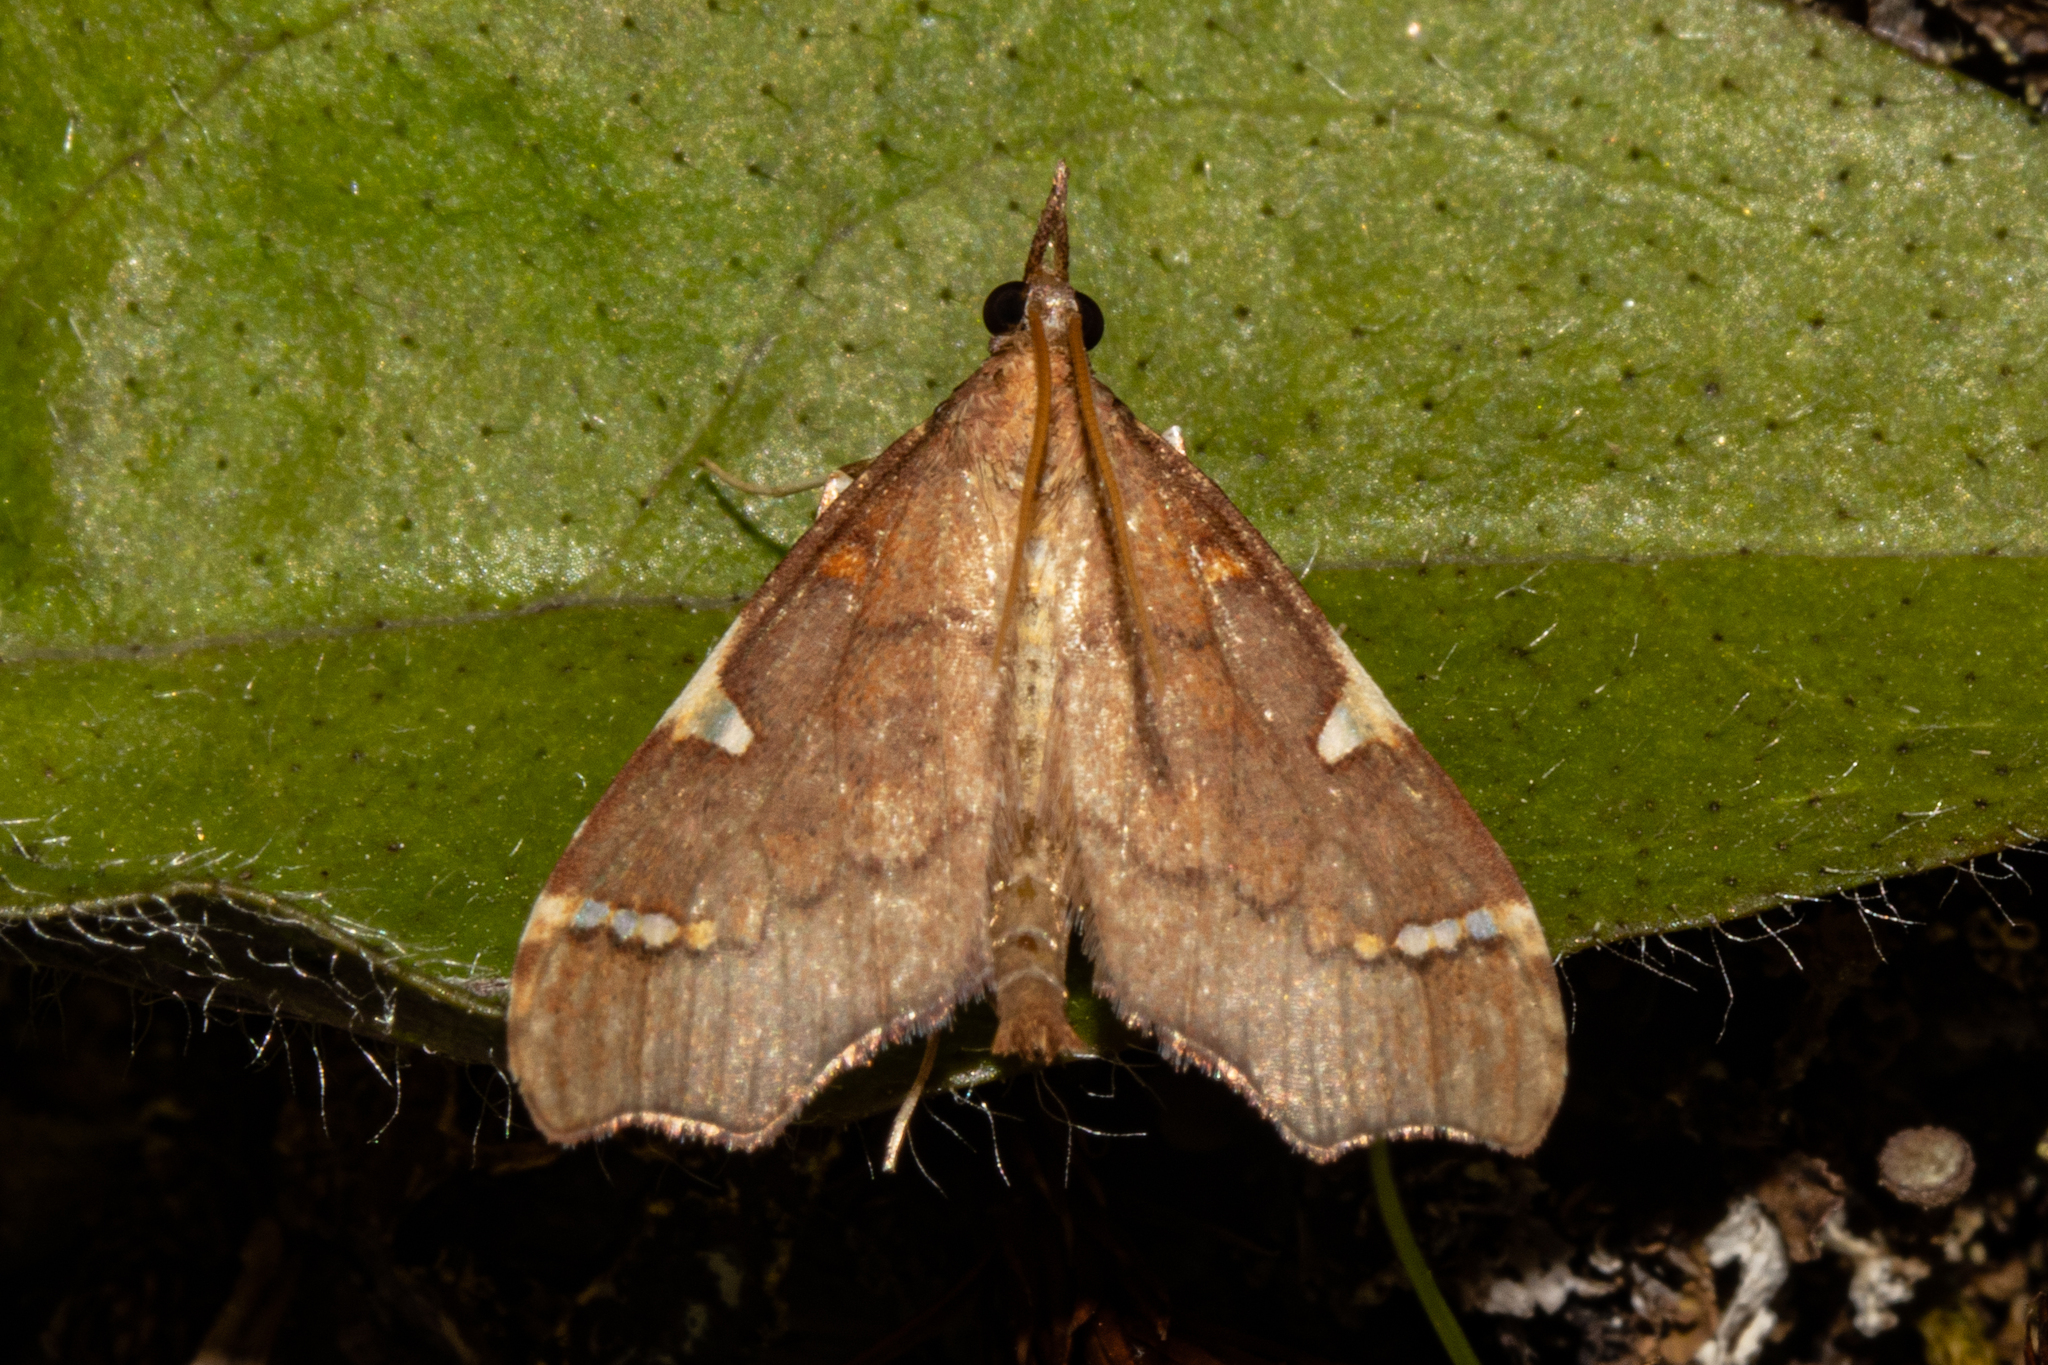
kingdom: Animalia
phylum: Arthropoda
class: Insecta
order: Lepidoptera
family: Crambidae
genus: Deana
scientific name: Deana hybreasalis
